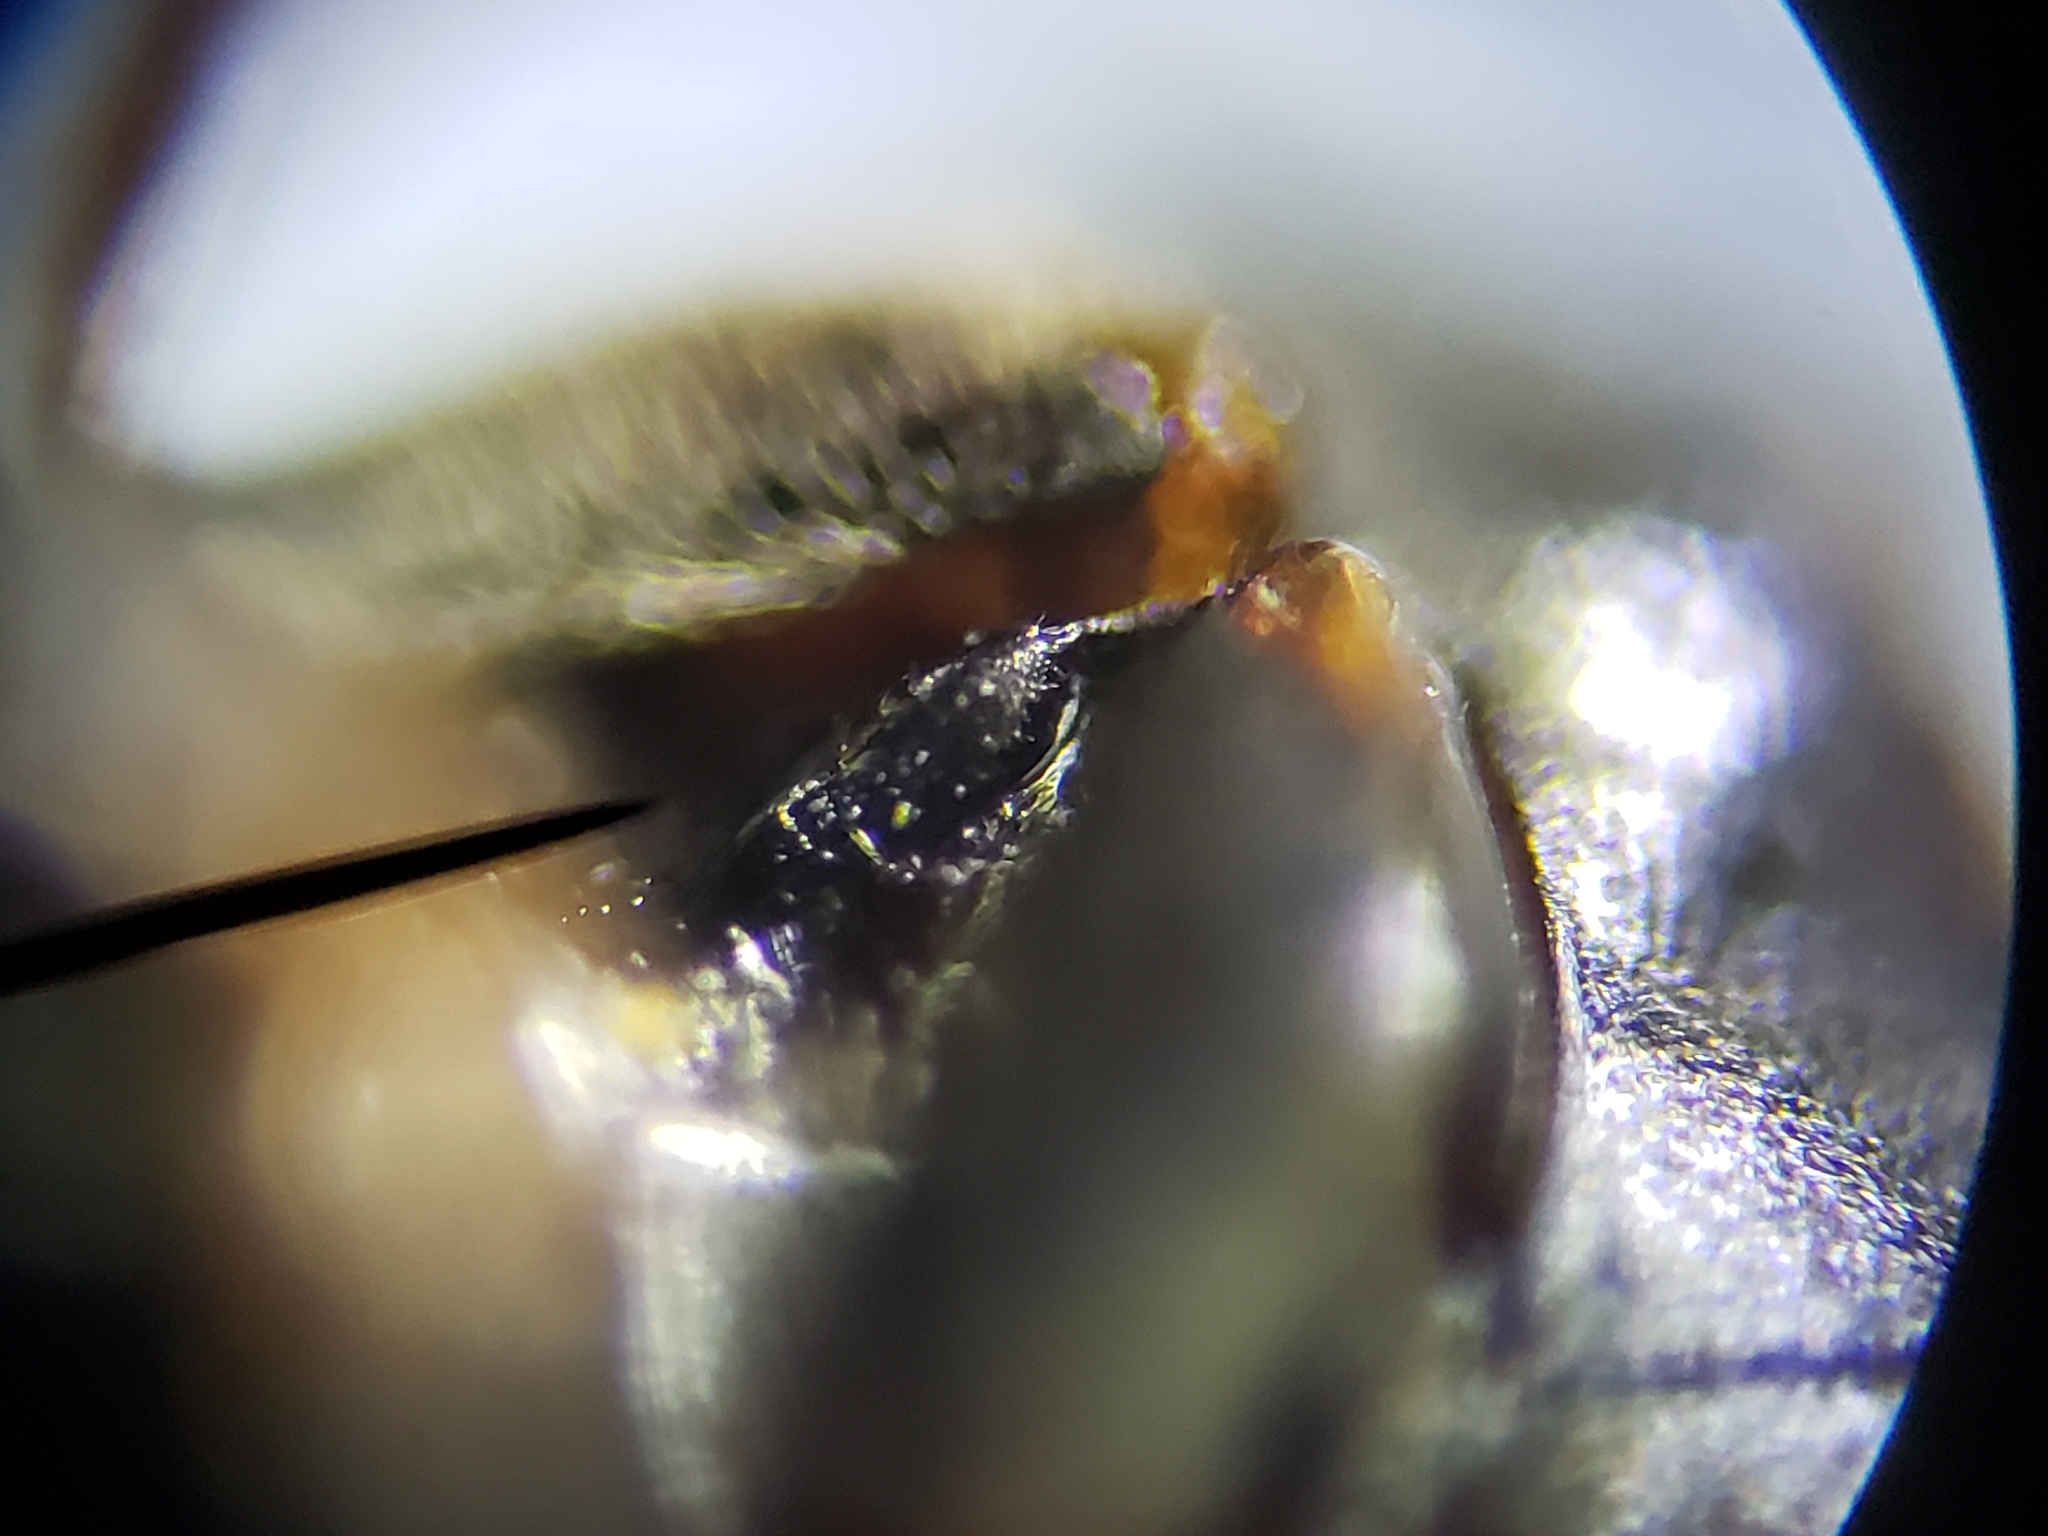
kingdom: Animalia
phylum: Arthropoda
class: Insecta
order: Coleoptera
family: Hydrophilidae
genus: Enochrus
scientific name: Enochrus ochraceus
